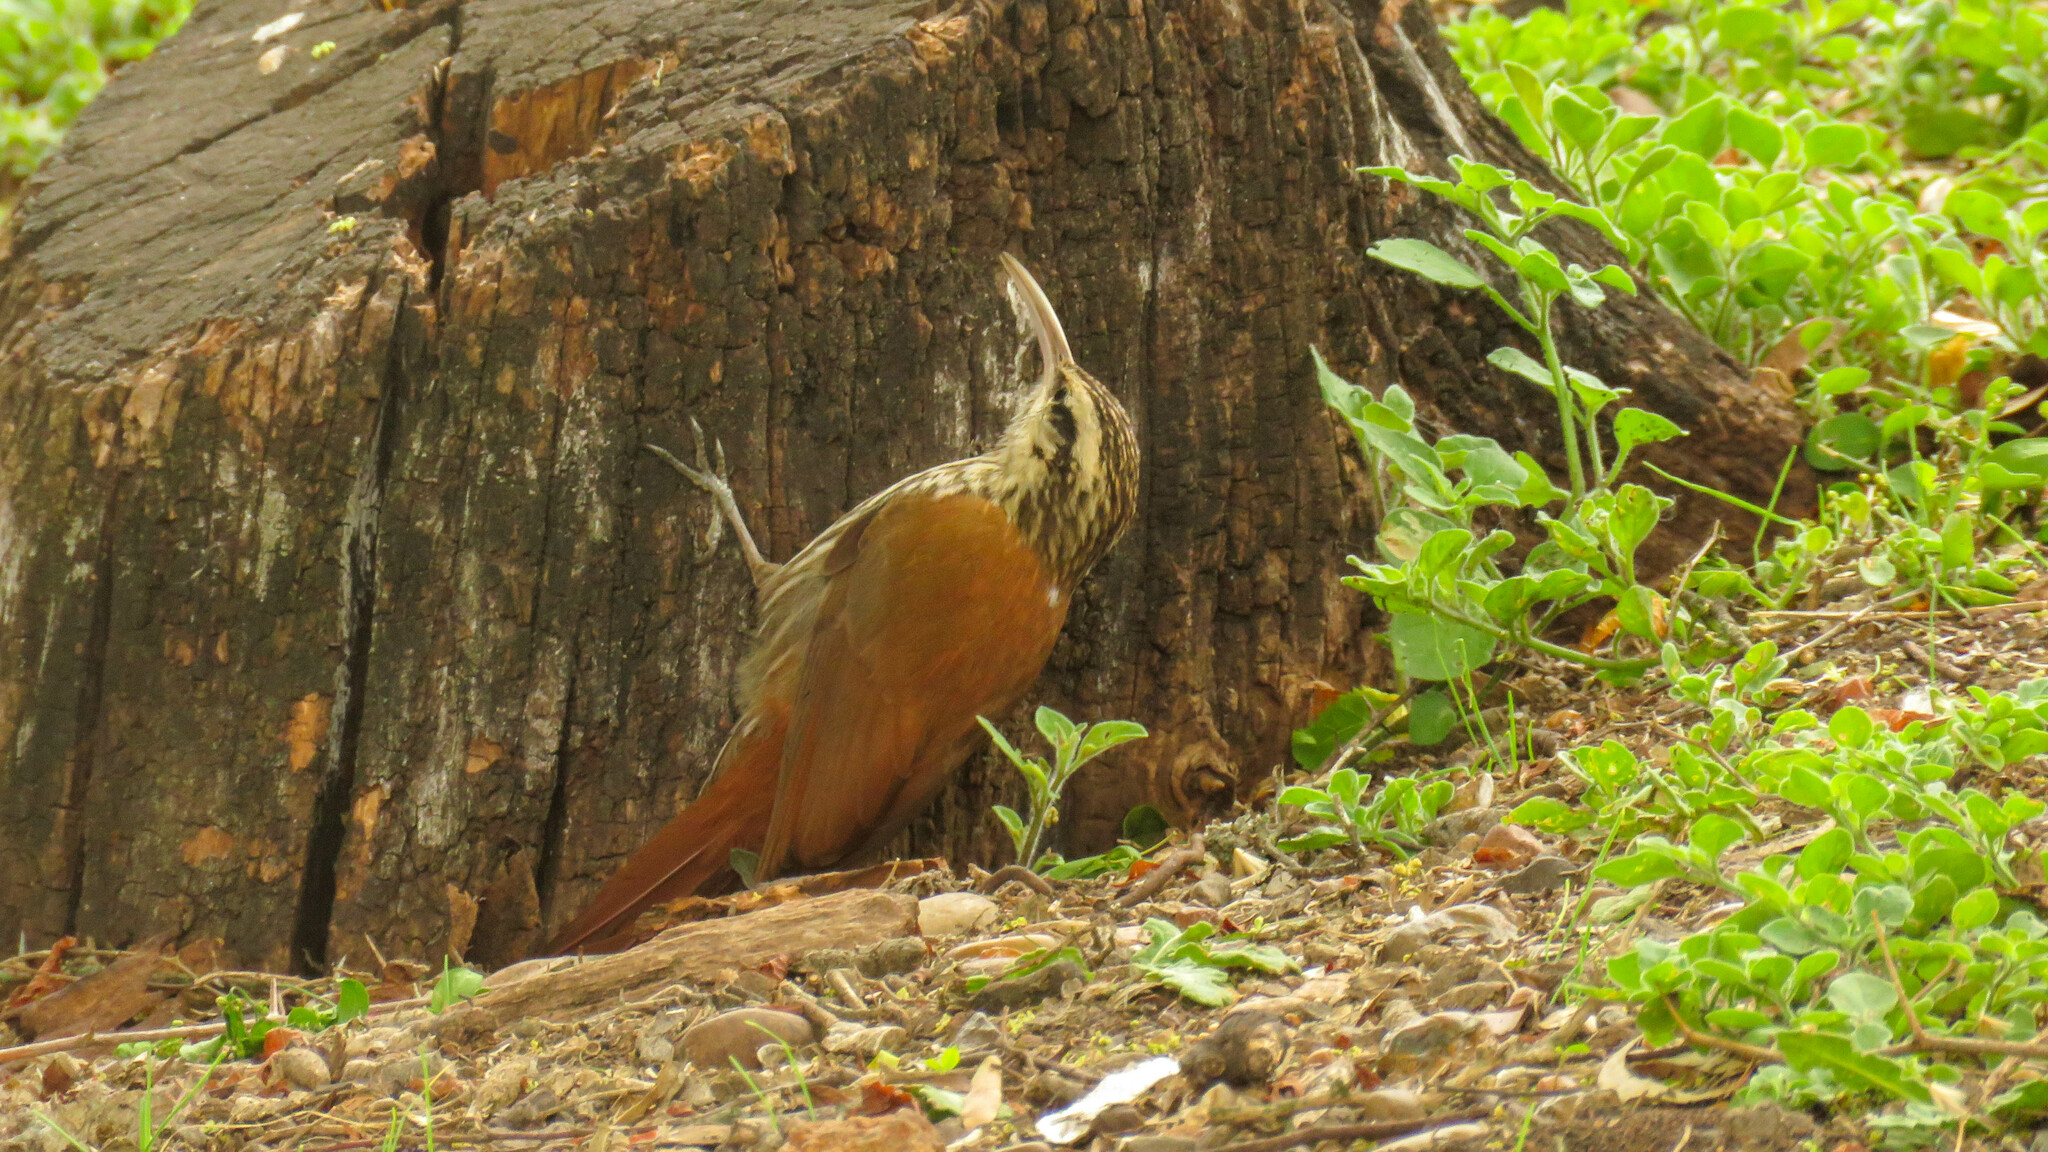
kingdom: Animalia
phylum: Chordata
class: Aves
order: Passeriformes
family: Furnariidae
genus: Lepidocolaptes
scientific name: Lepidocolaptes angustirostris
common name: Narrow-billed woodcreeper
